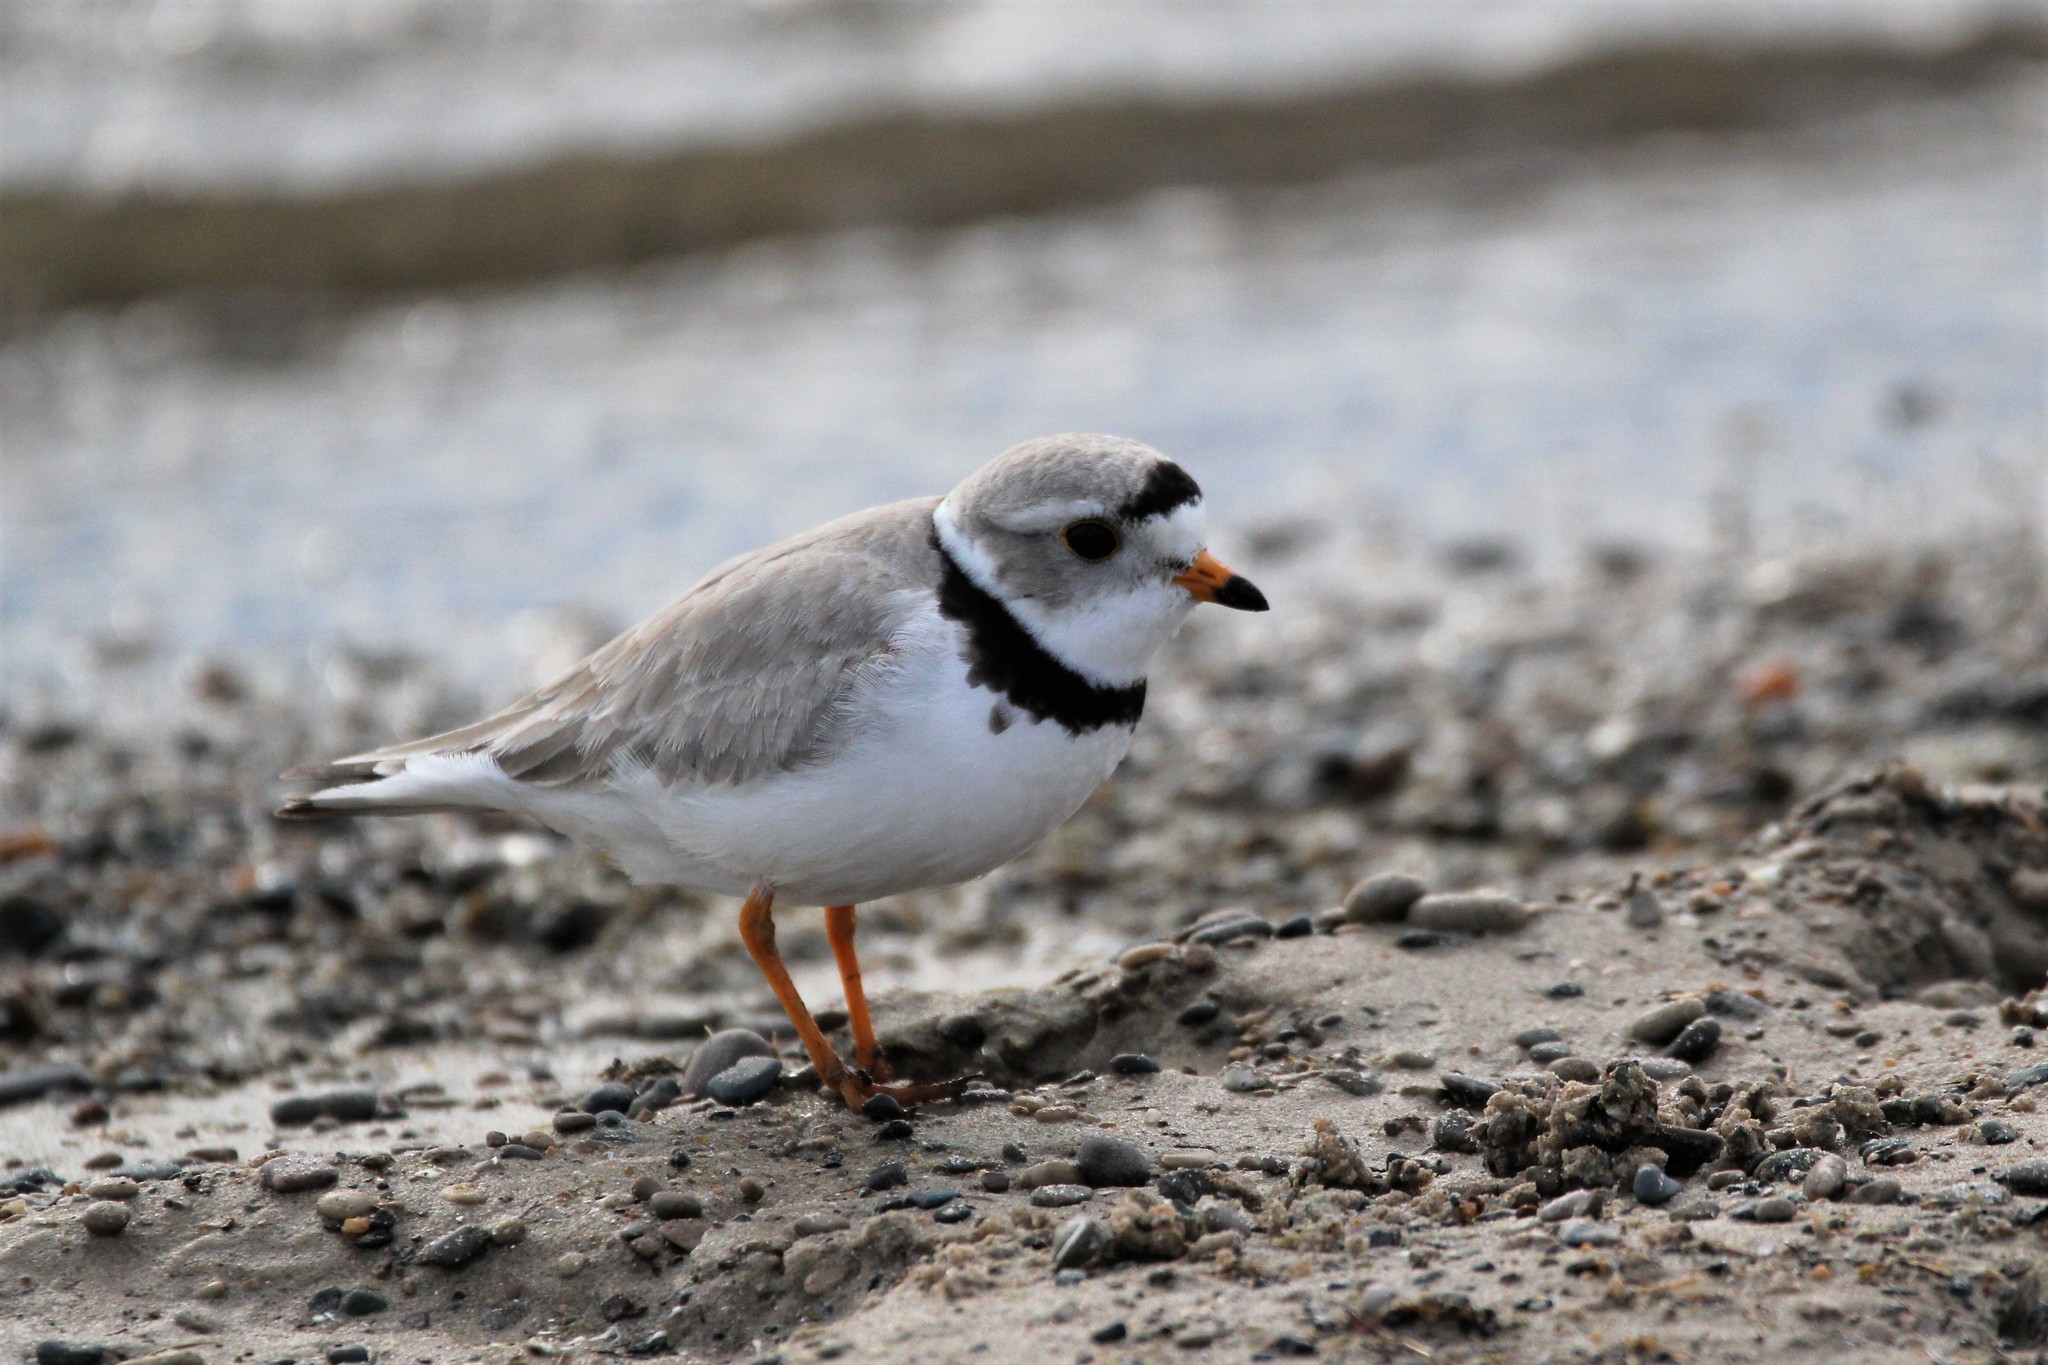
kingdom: Animalia
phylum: Chordata
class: Aves
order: Charadriiformes
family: Charadriidae
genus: Charadrius
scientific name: Charadrius melodus
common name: Piping plover
